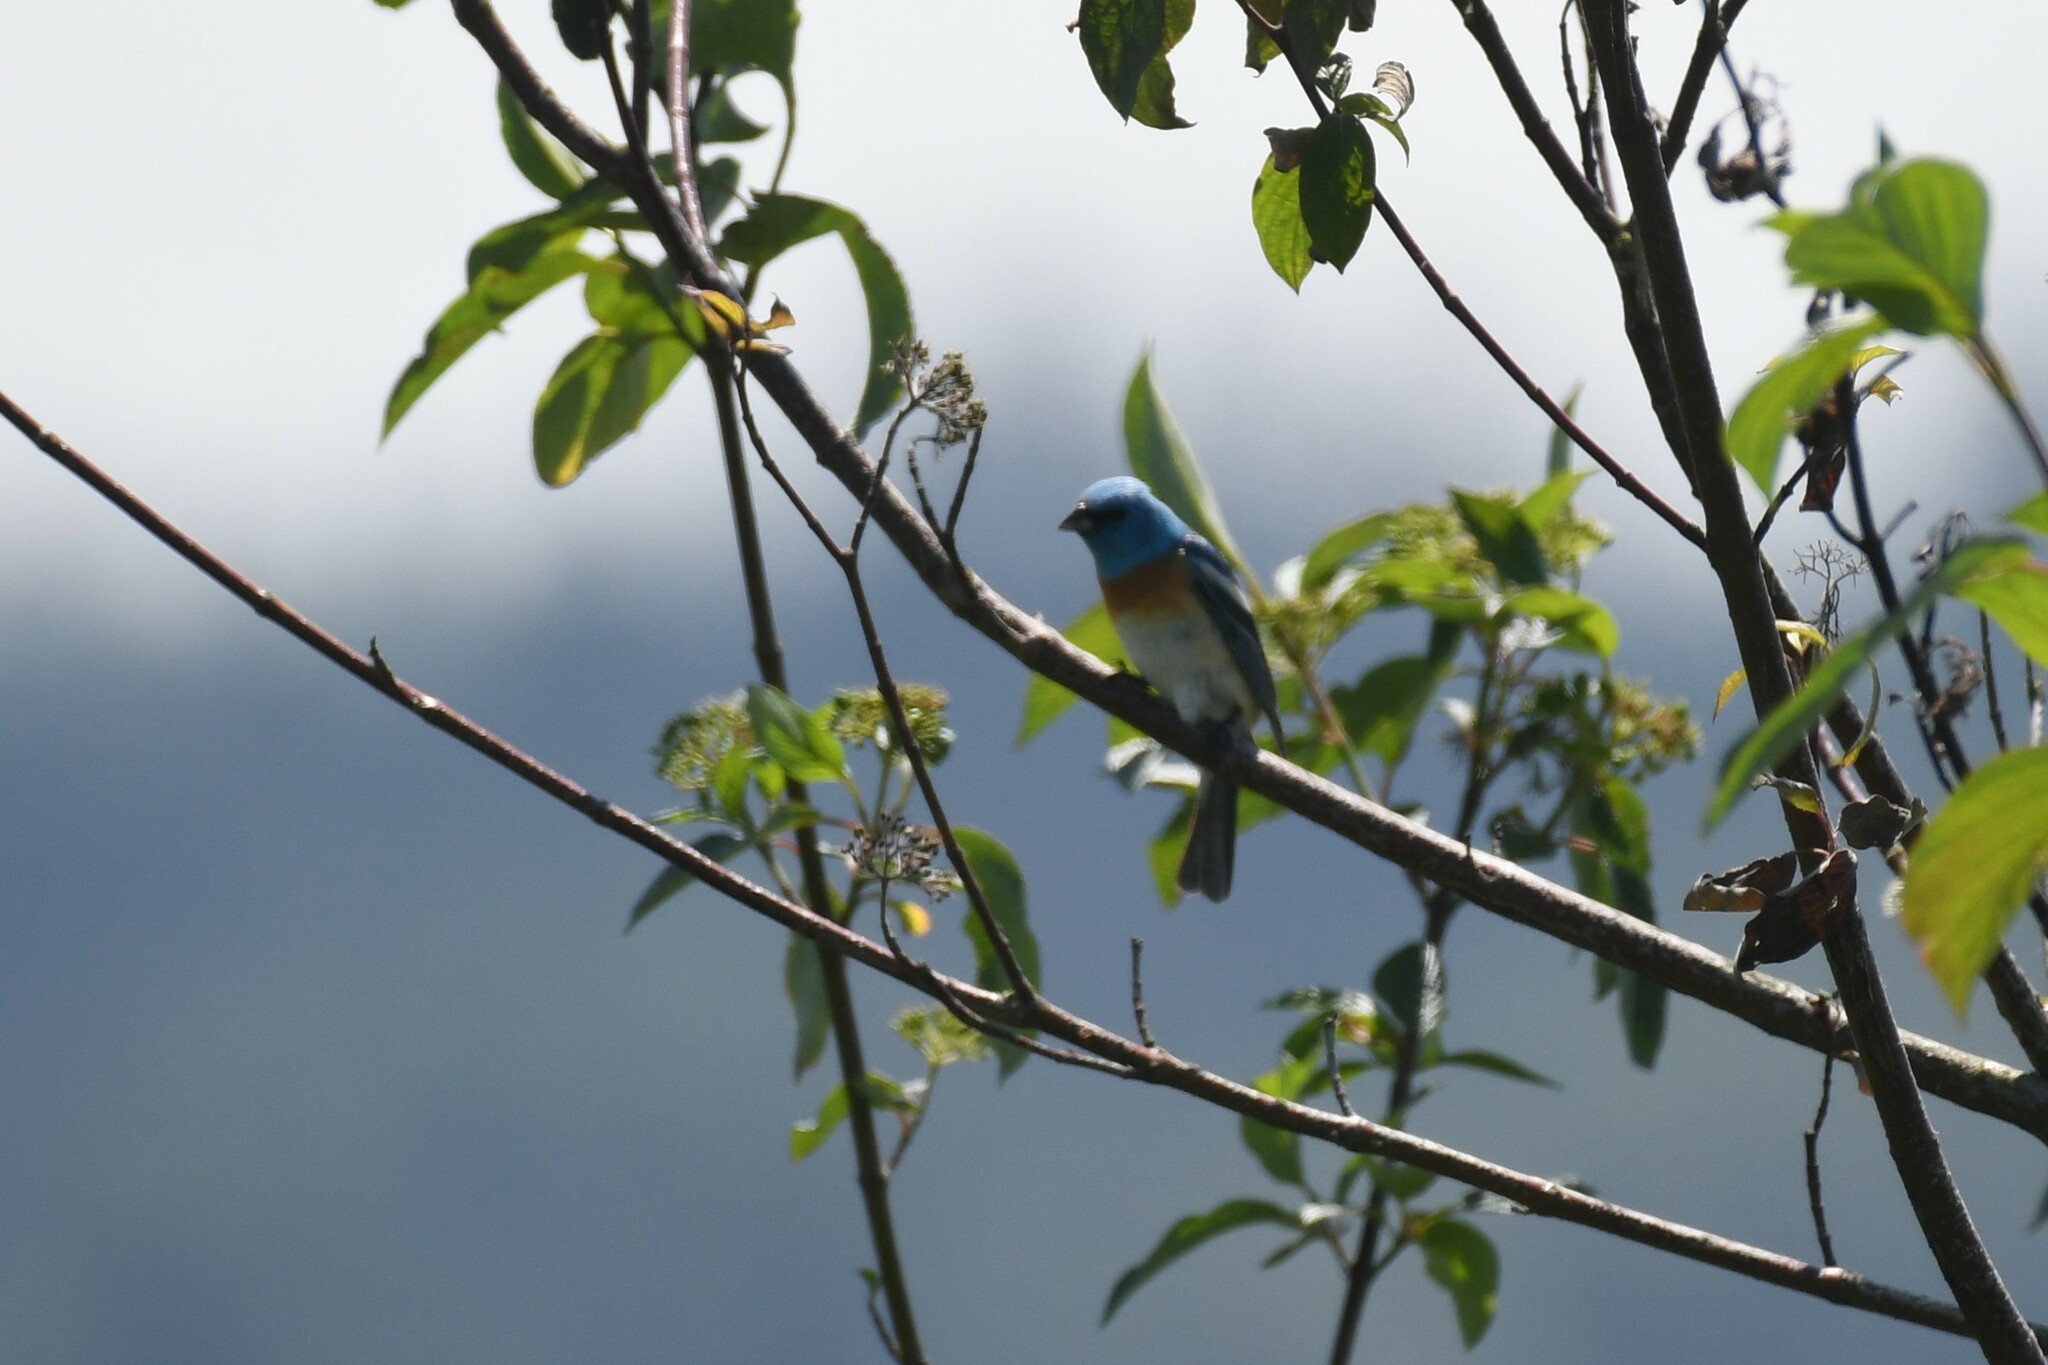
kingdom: Animalia
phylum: Chordata
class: Aves
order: Passeriformes
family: Cardinalidae
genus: Passerina
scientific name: Passerina amoena
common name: Lazuli bunting
